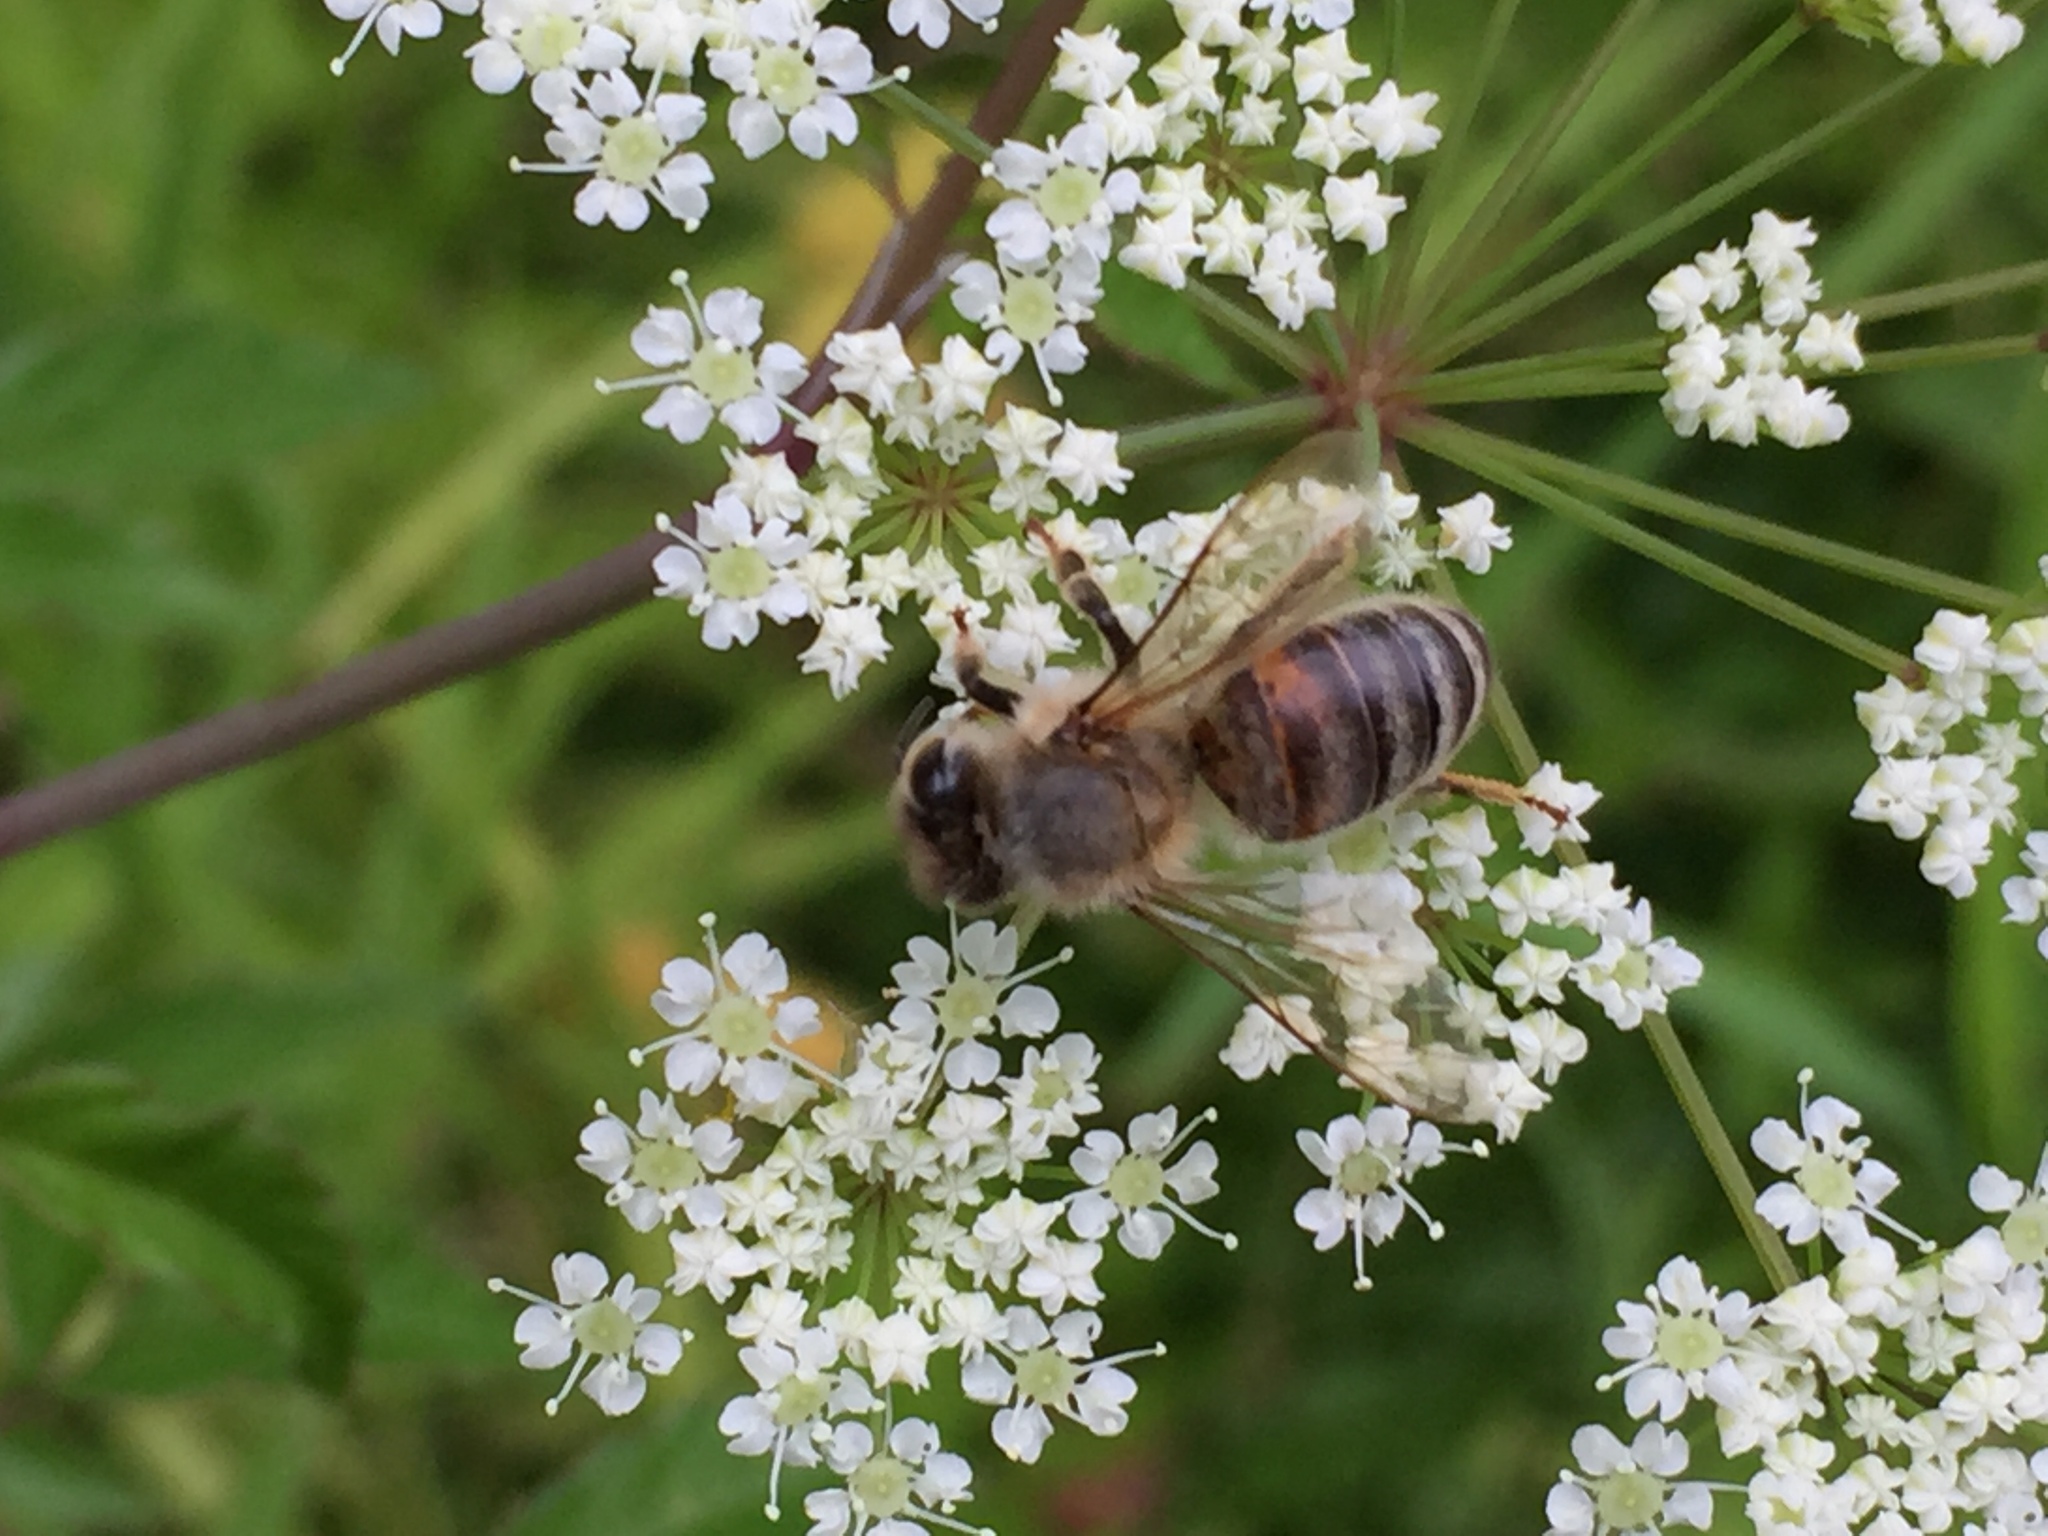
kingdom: Animalia
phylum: Arthropoda
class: Insecta
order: Hymenoptera
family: Apidae
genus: Apis
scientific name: Apis mellifera
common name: Honey bee
